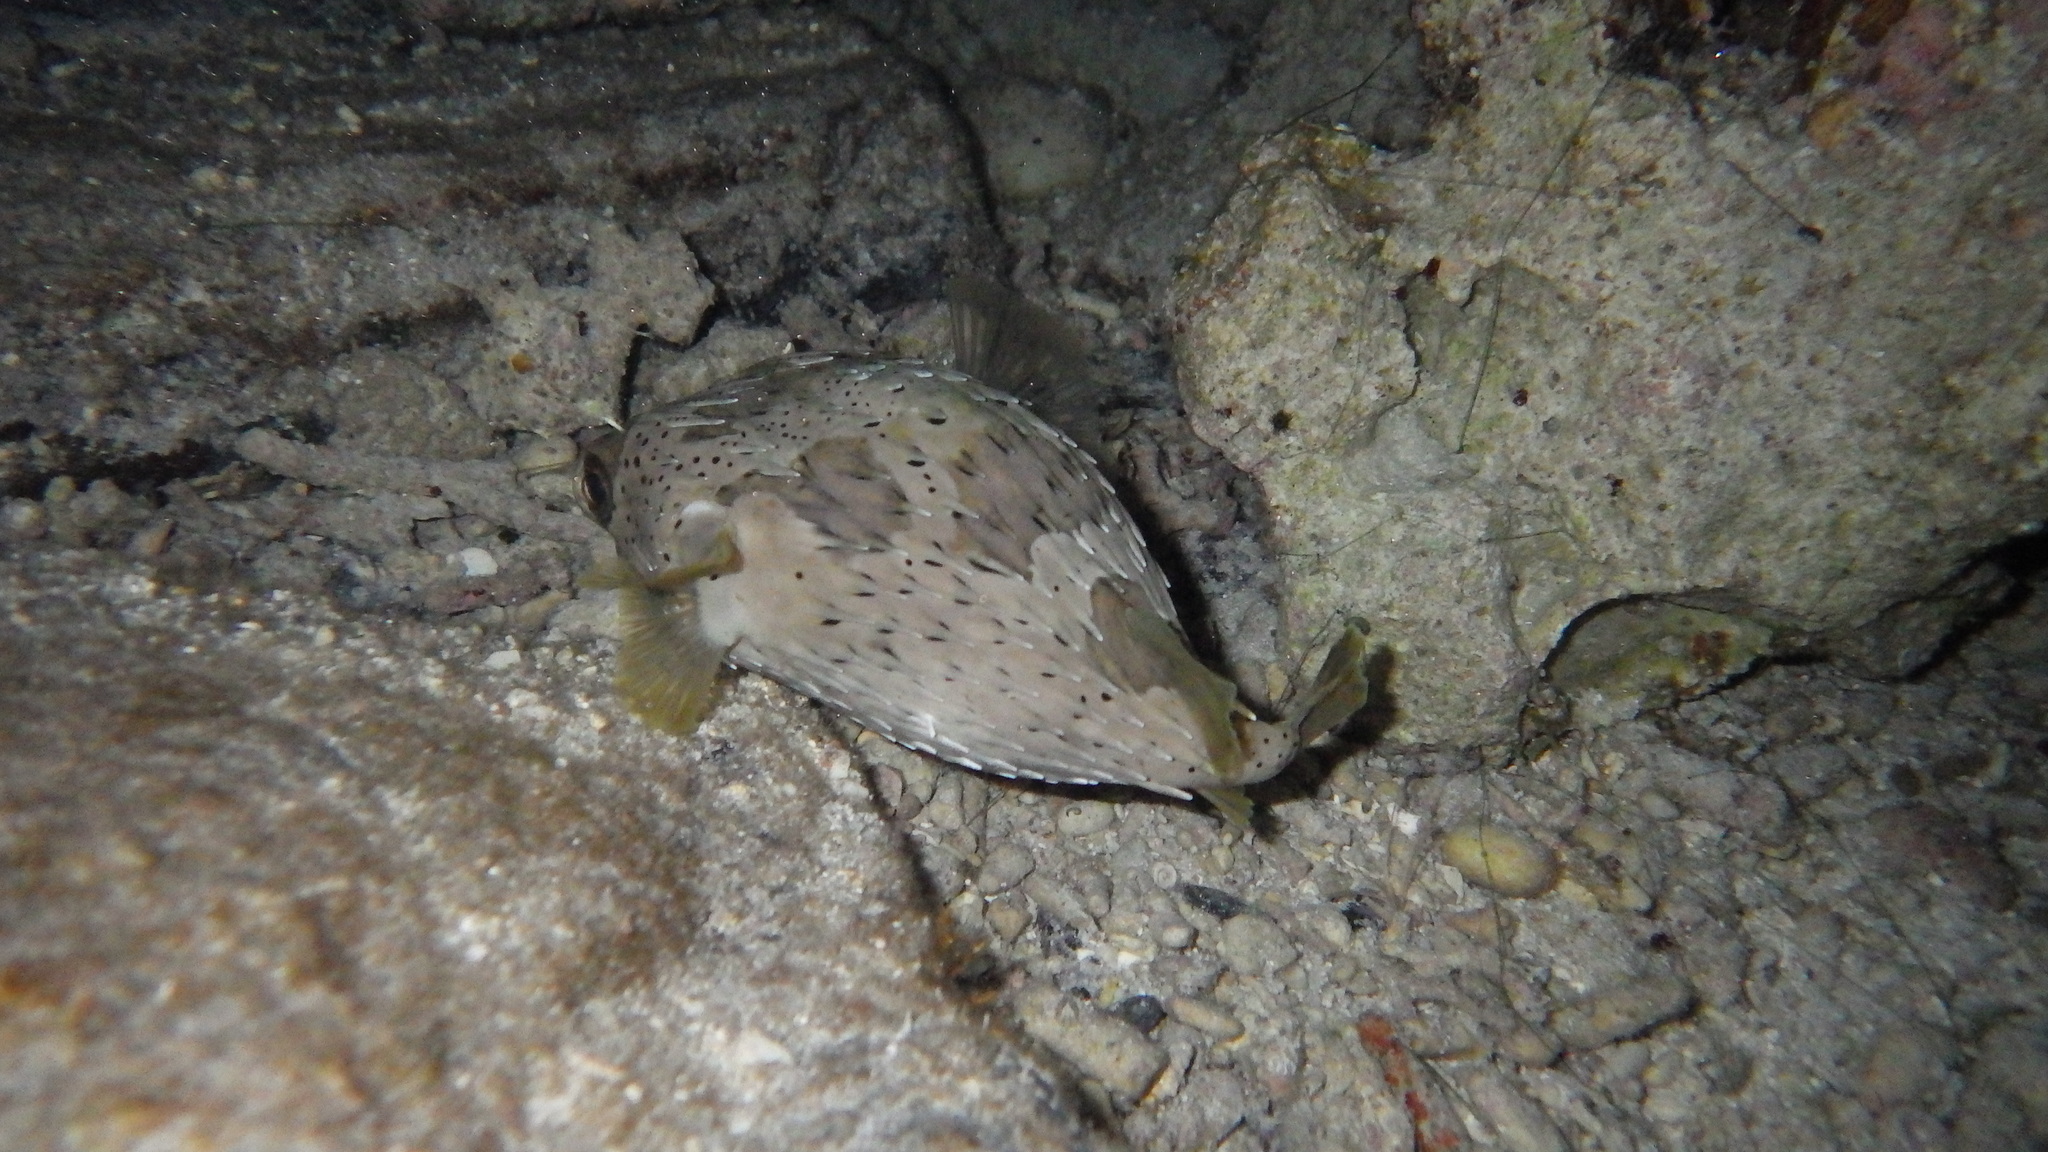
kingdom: Animalia
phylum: Chordata
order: Tetraodontiformes
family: Diodontidae
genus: Diodon
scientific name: Diodon holocanthus
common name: Balloonfish
